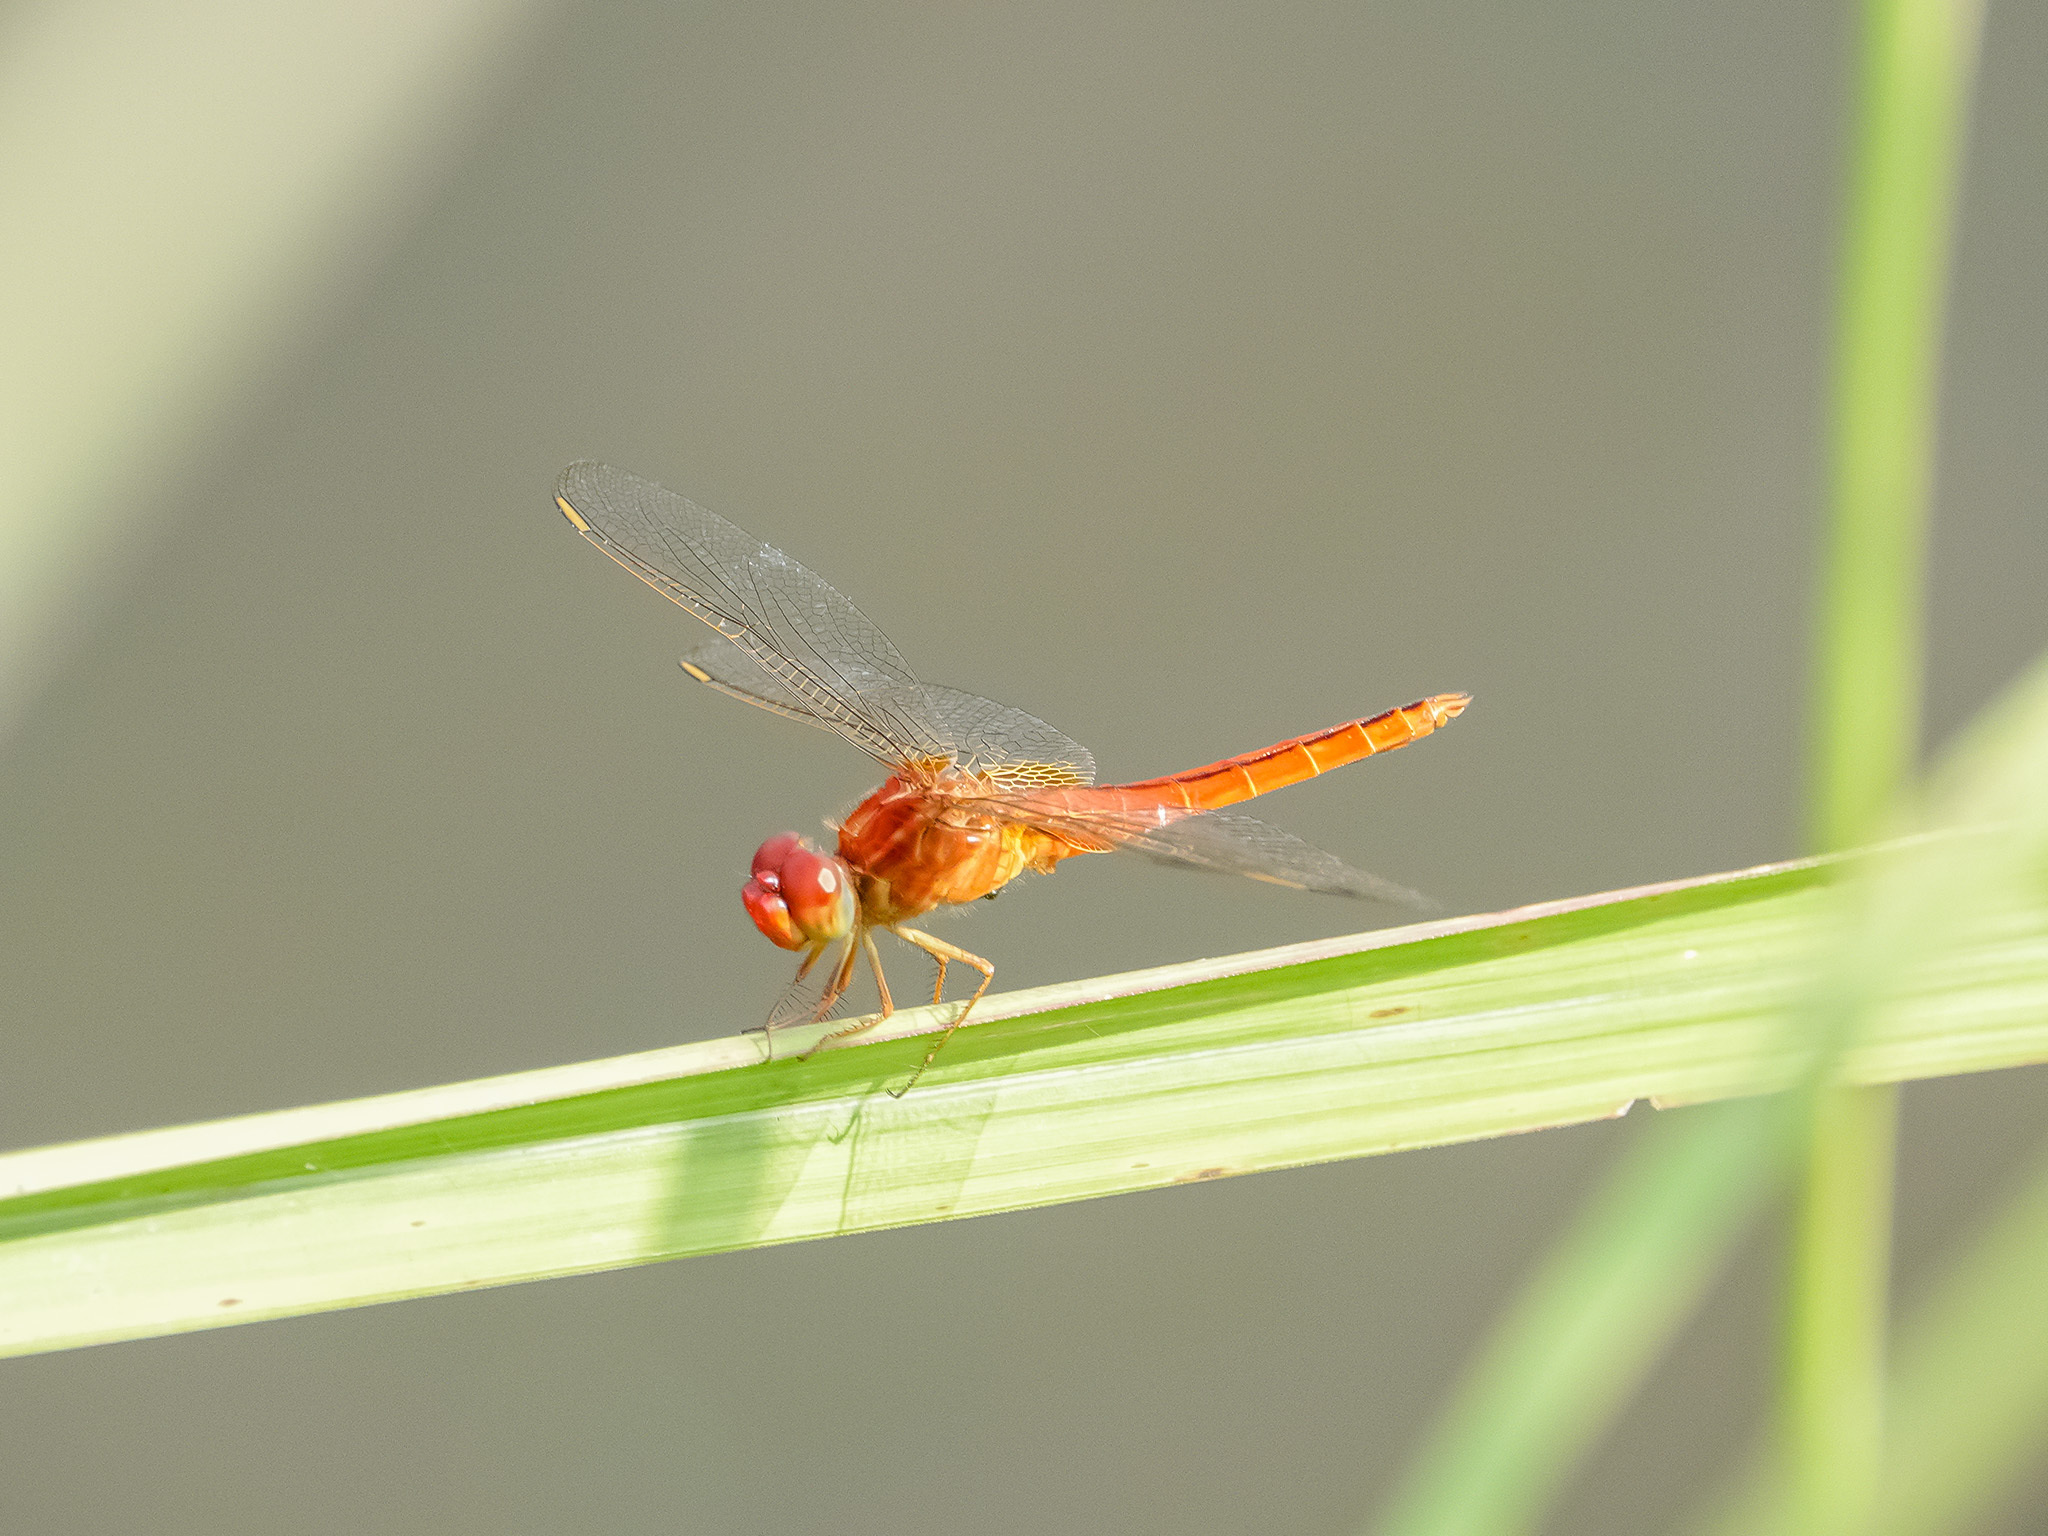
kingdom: Animalia
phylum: Arthropoda
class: Insecta
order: Odonata
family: Libellulidae
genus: Crocothemis
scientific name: Crocothemis servilia
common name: Scarlet skimmer
